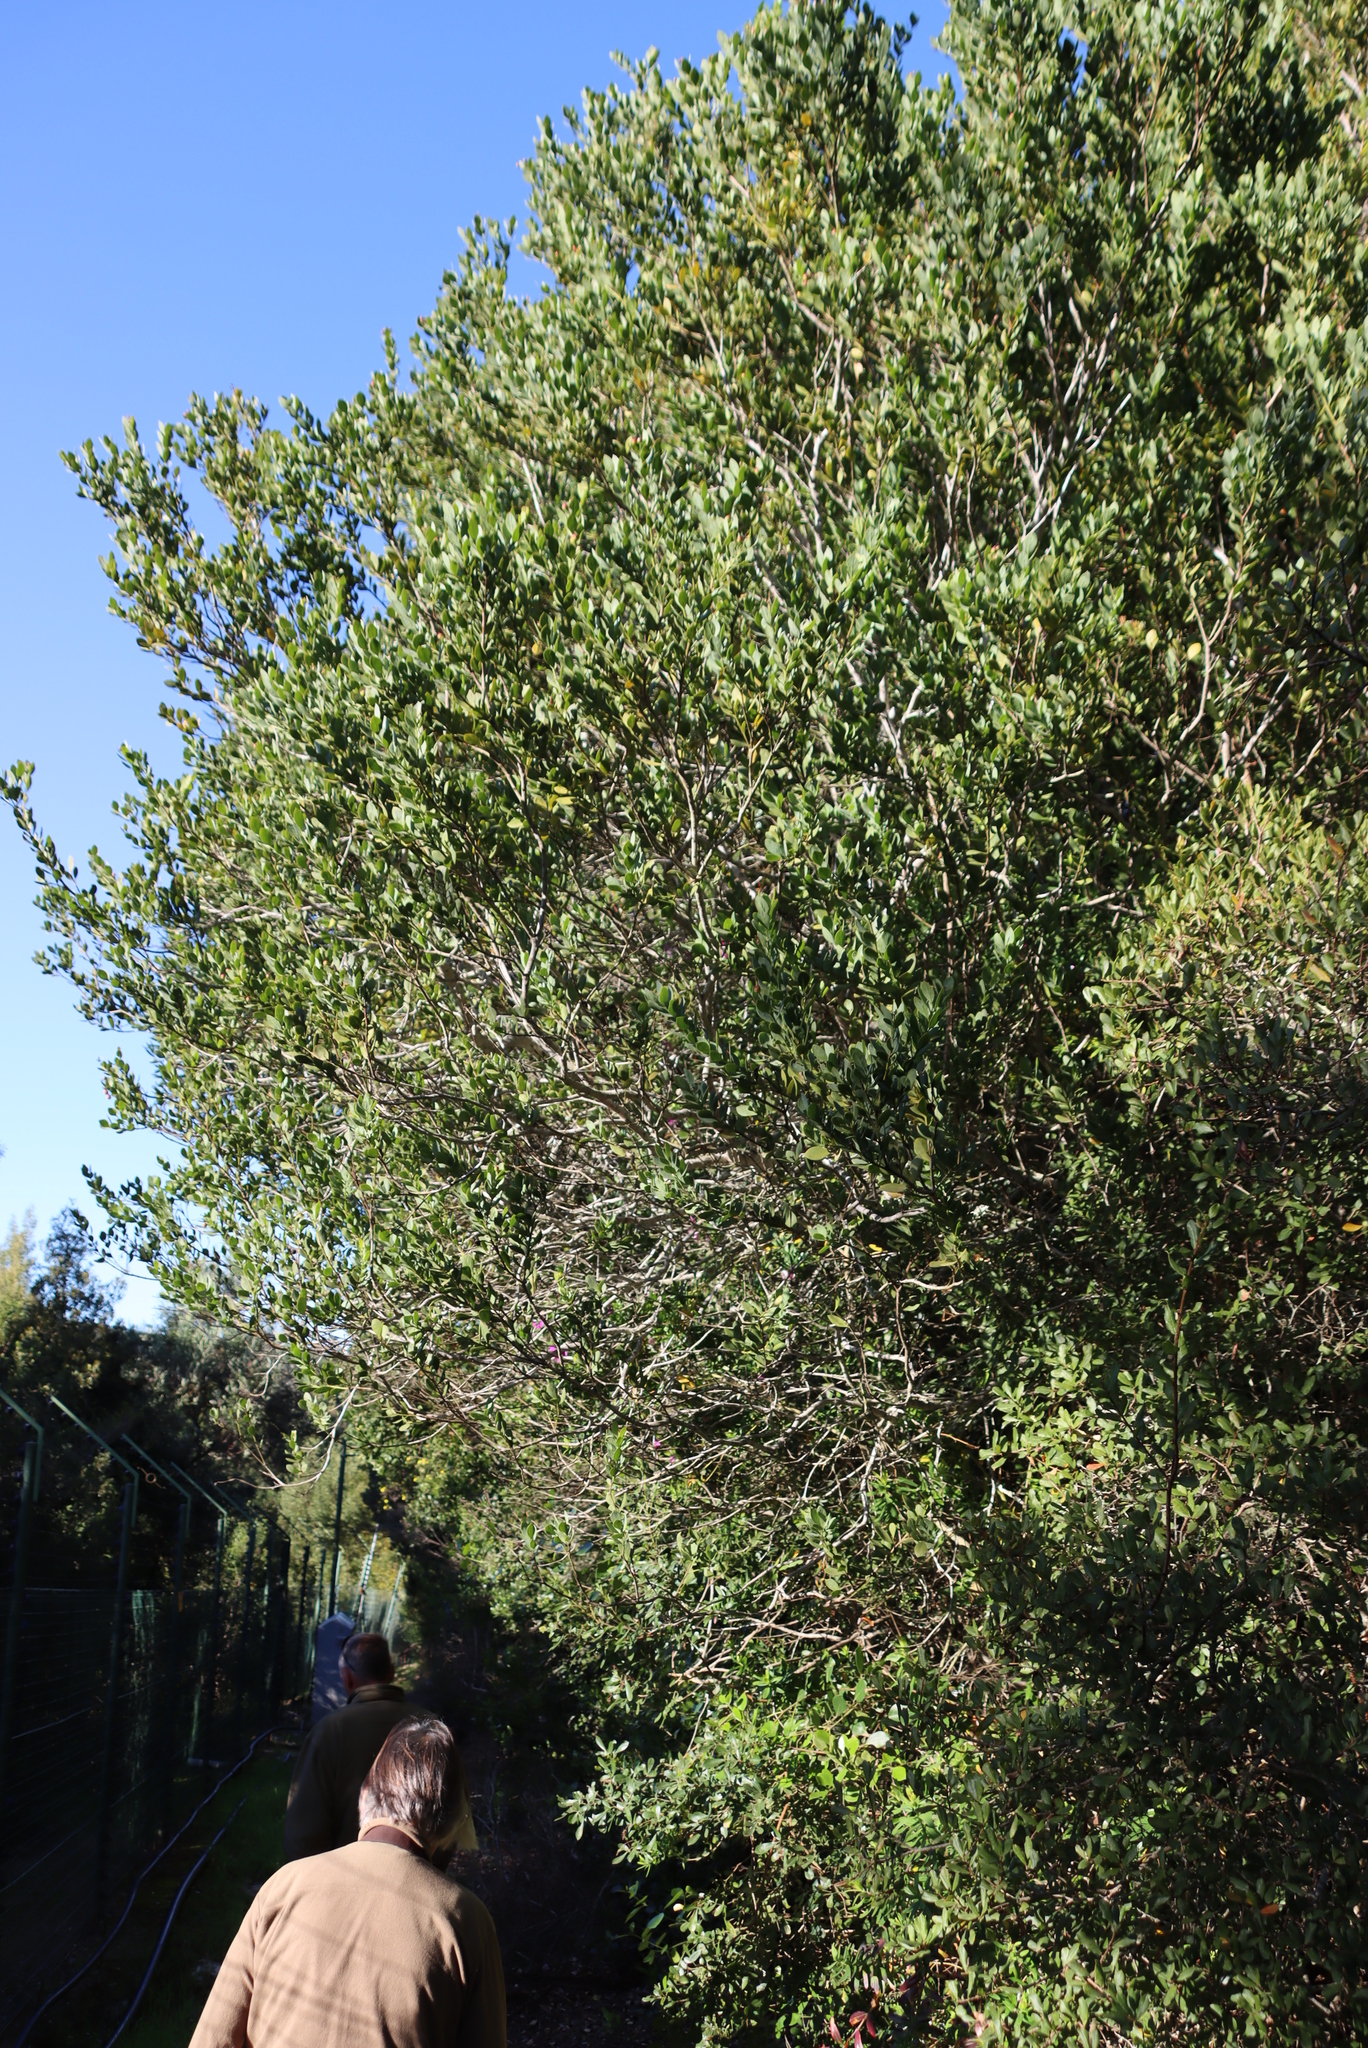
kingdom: Plantae
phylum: Tracheophyta
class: Magnoliopsida
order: Santalales
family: Santalaceae
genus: Osyris
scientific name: Osyris compressa
